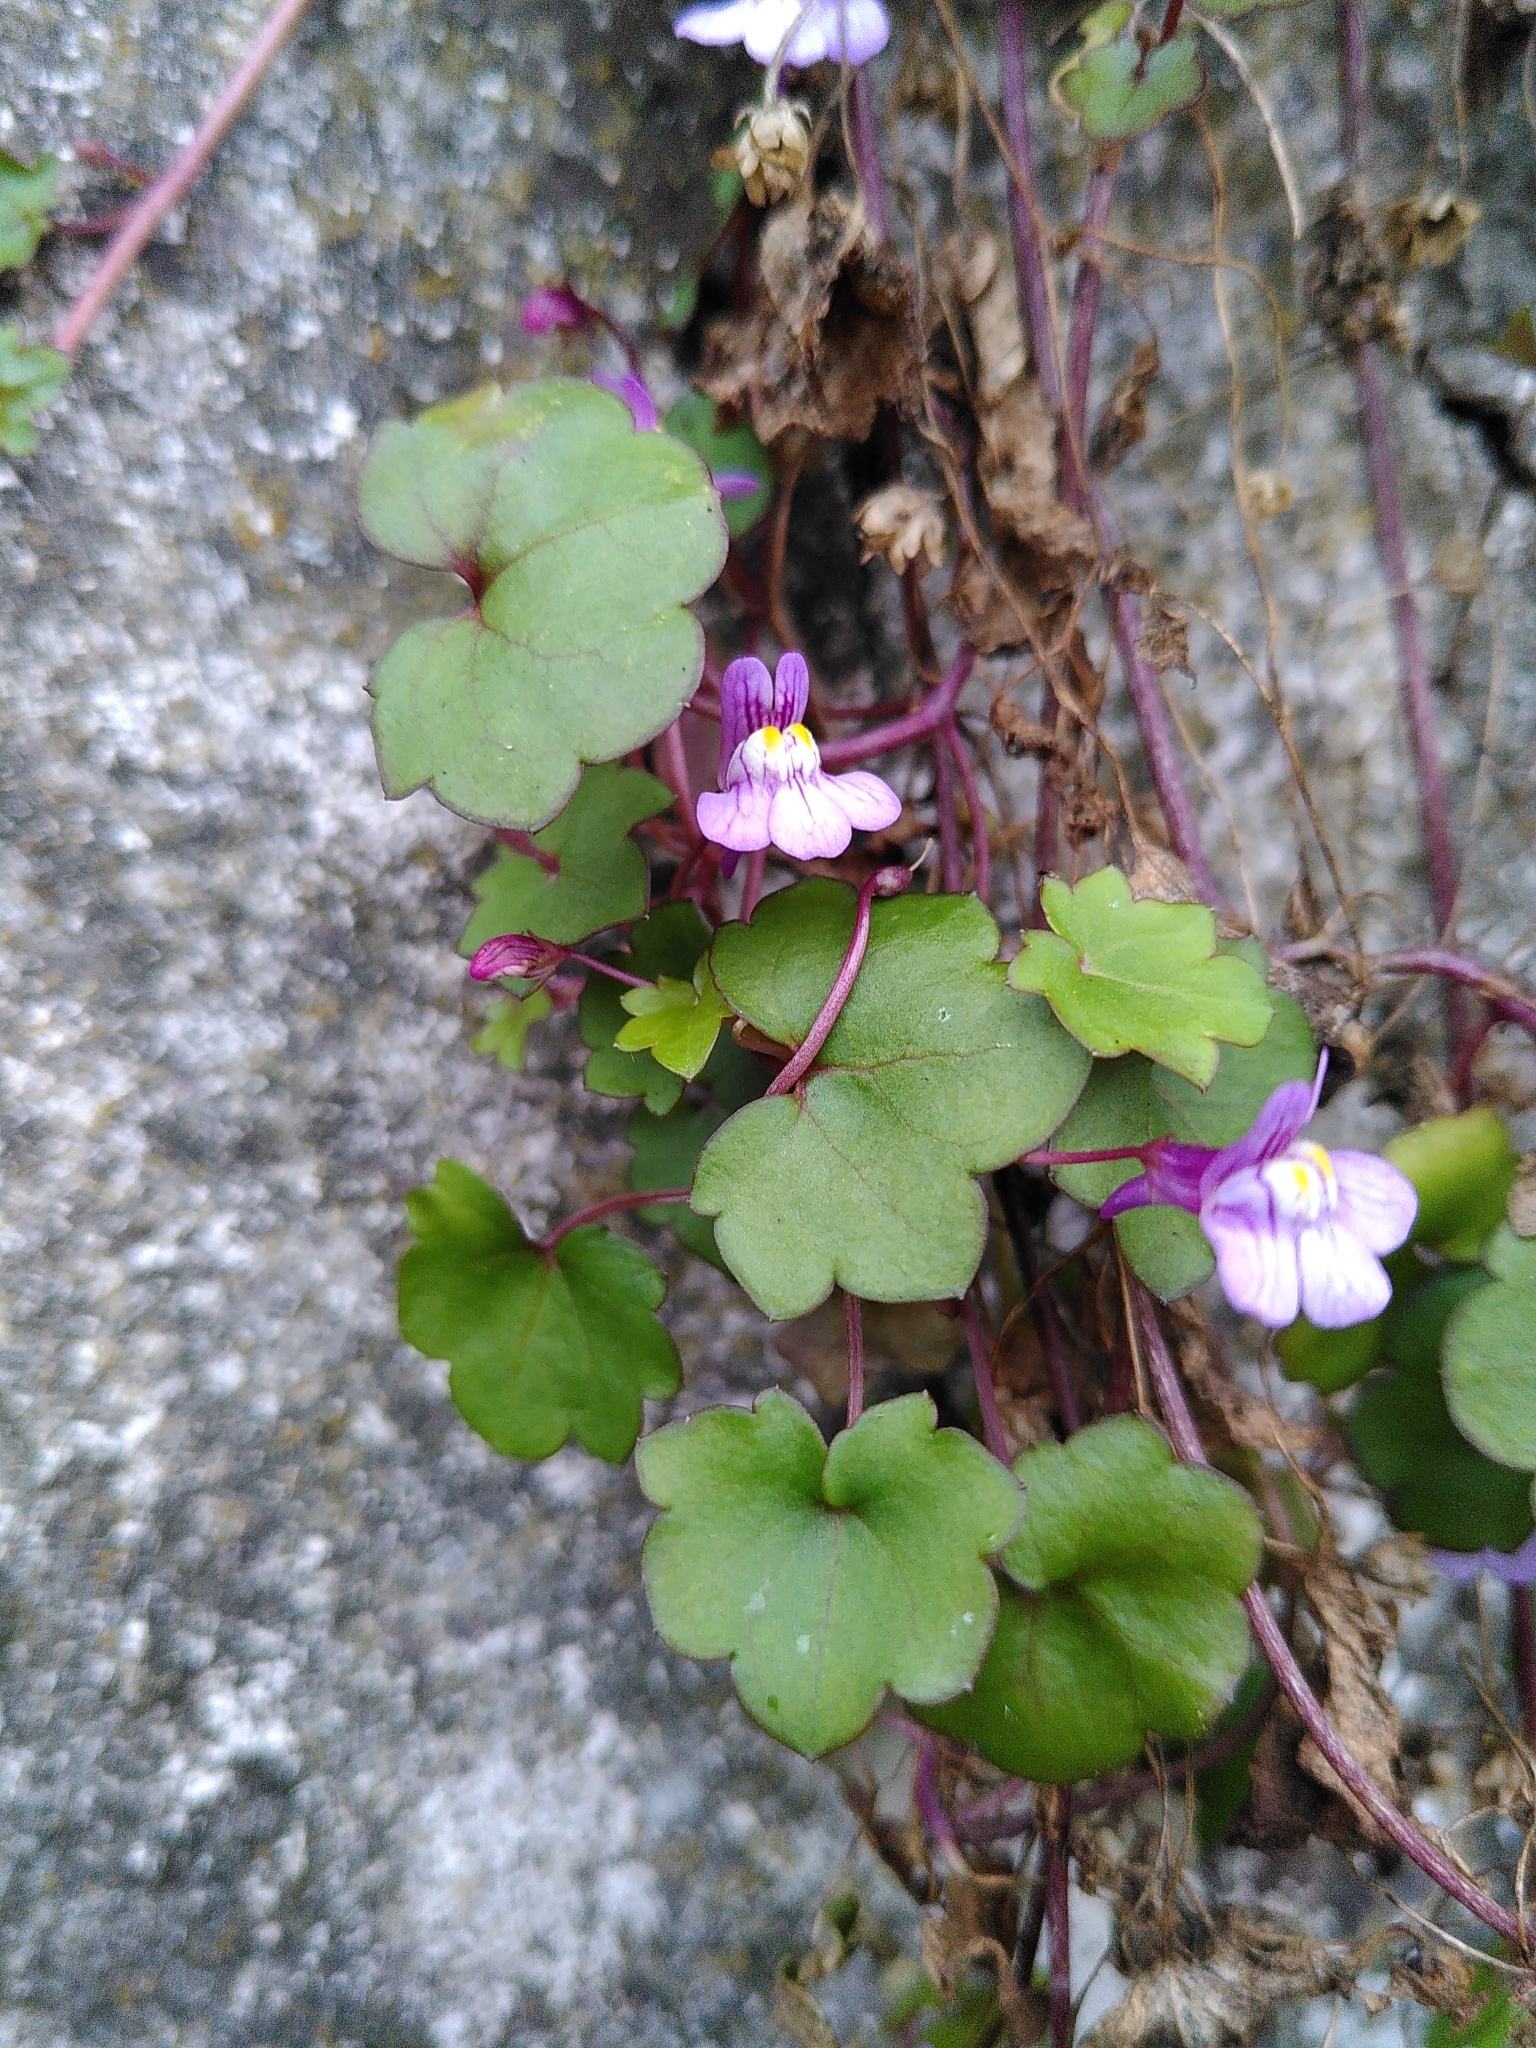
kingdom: Plantae
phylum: Tracheophyta
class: Magnoliopsida
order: Lamiales
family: Plantaginaceae
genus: Cymbalaria
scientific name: Cymbalaria muralis
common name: Ivy-leaved toadflax
